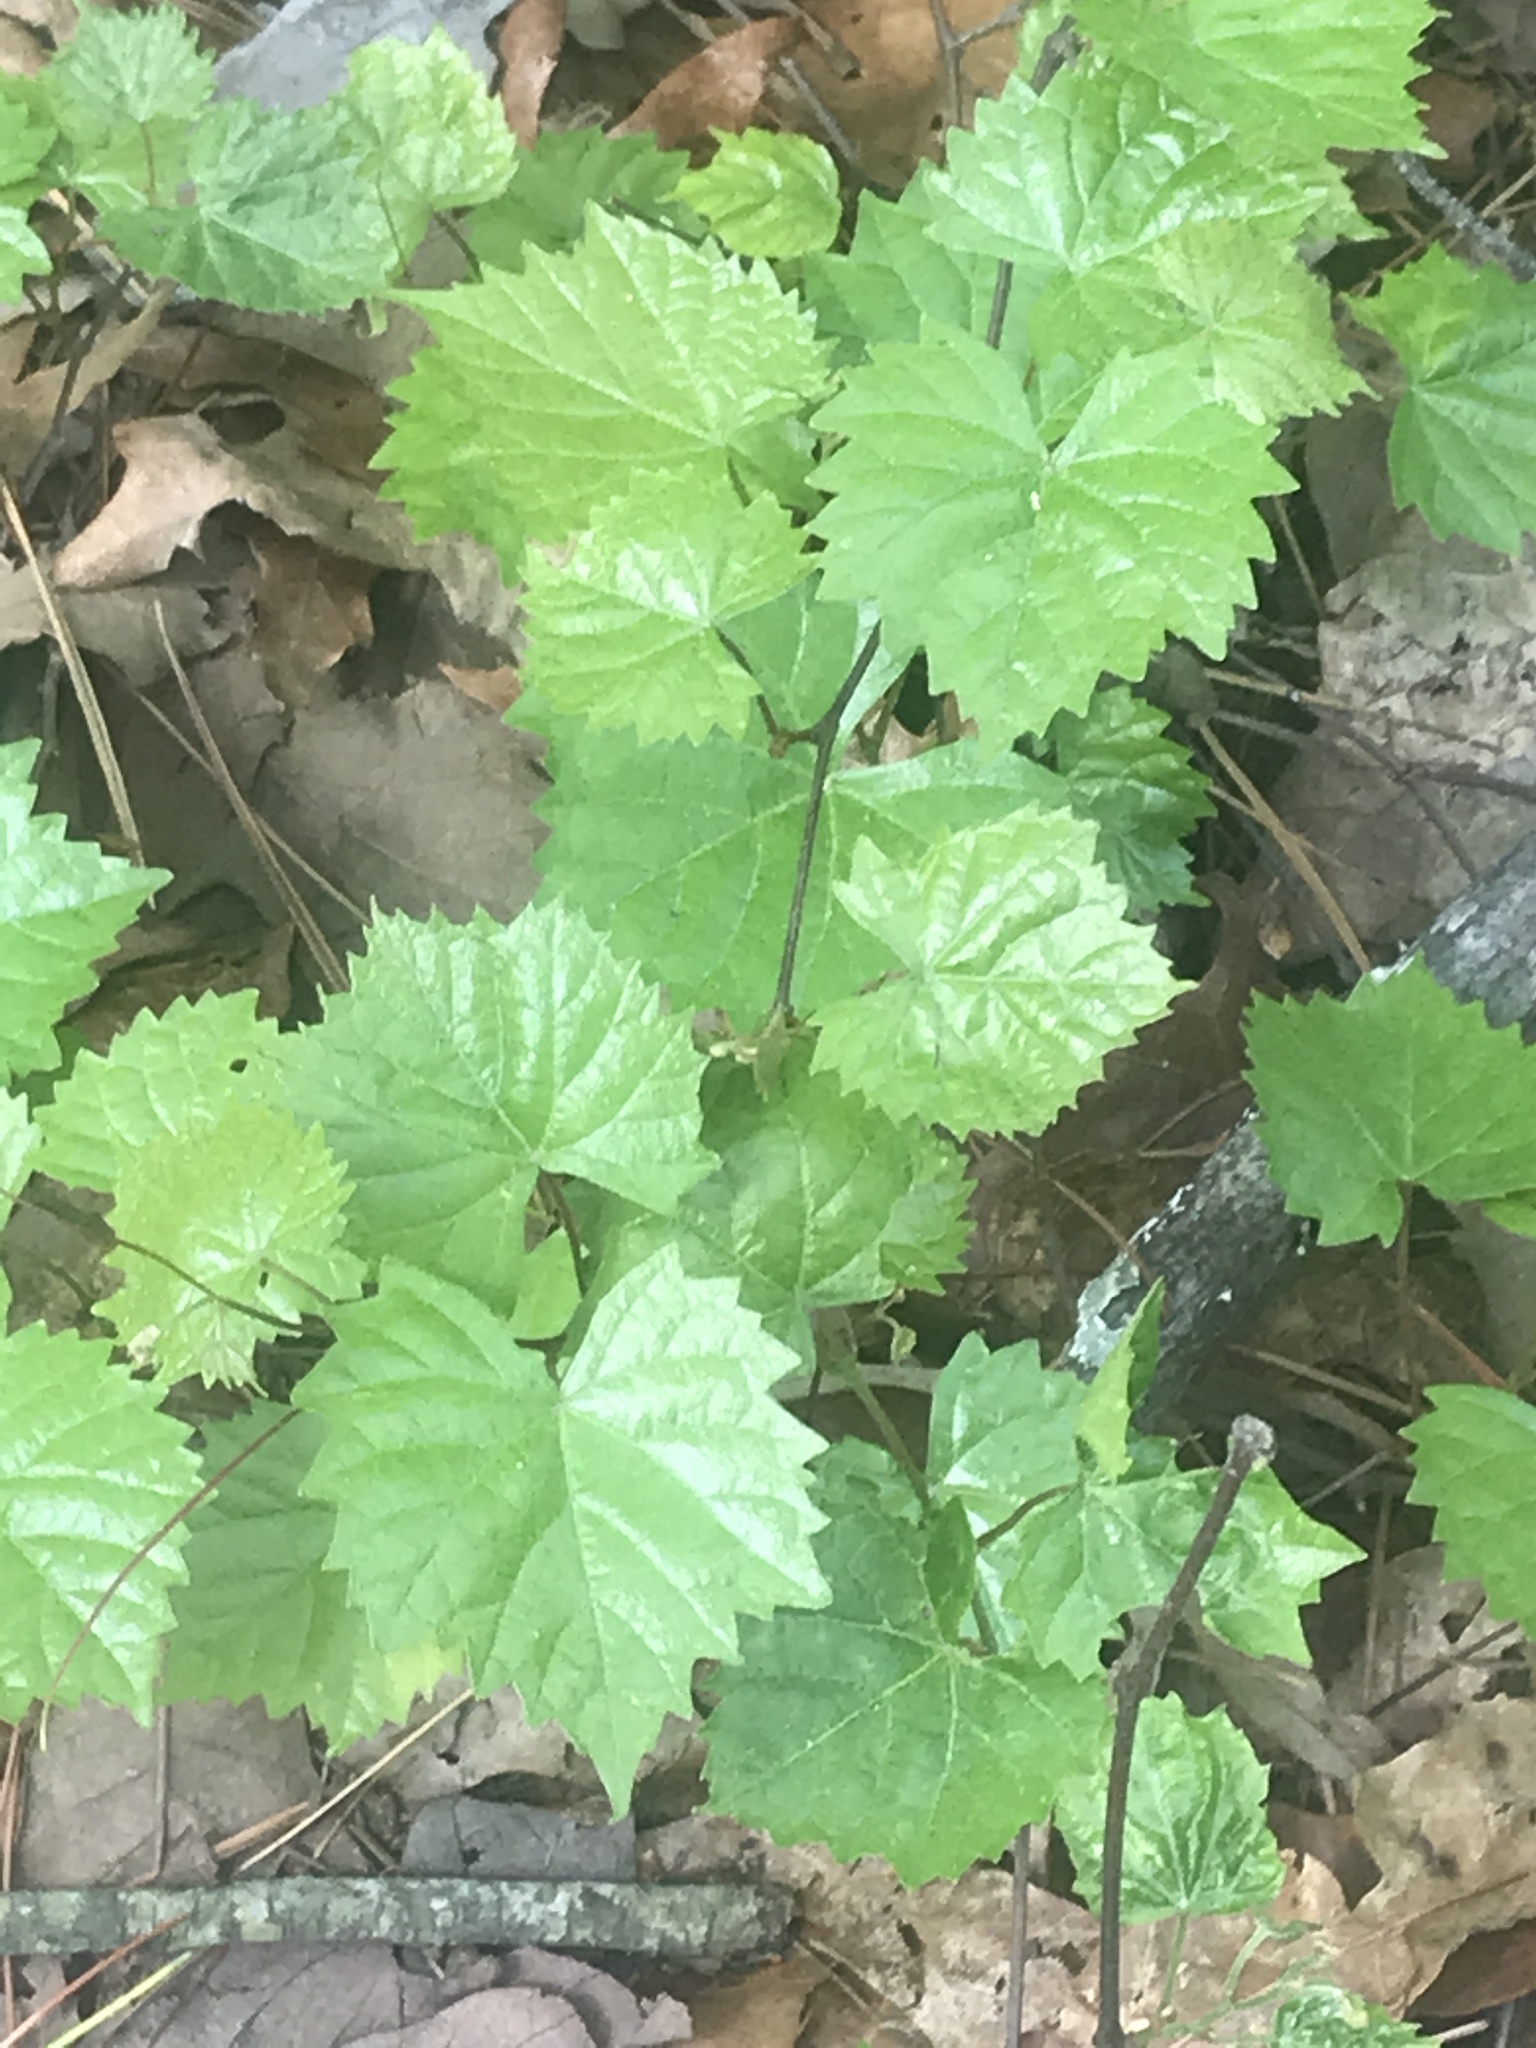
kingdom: Plantae
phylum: Tracheophyta
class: Magnoliopsida
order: Vitales
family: Vitaceae
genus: Vitis
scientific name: Vitis rotundifolia
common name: Muscadine grape
